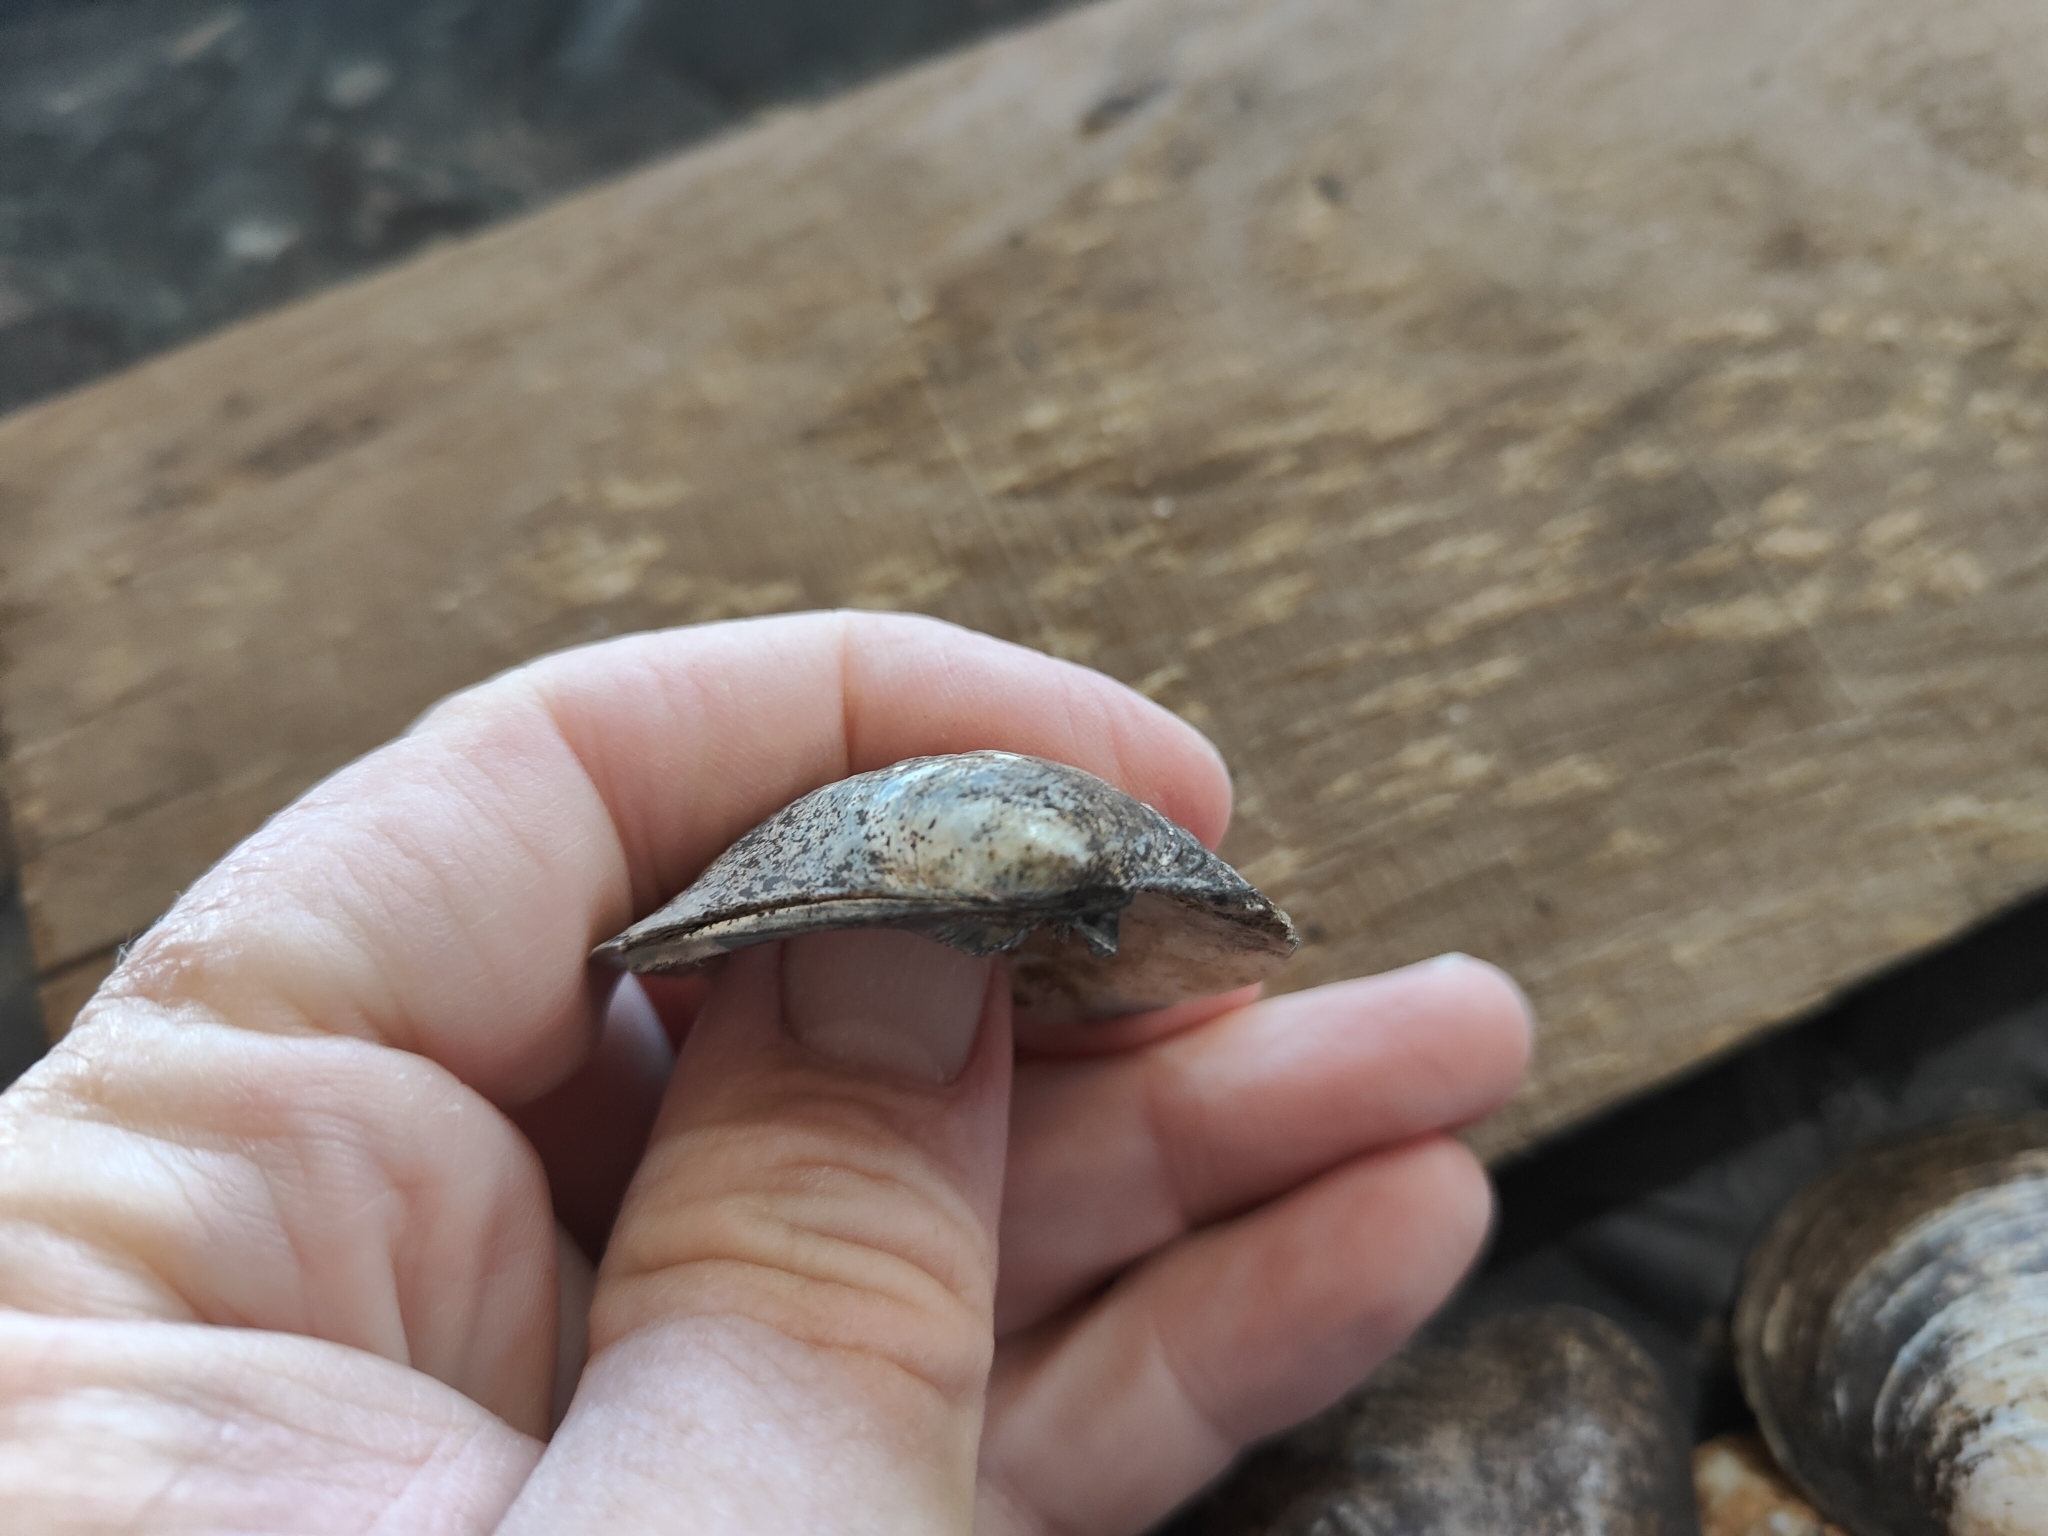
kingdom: Animalia
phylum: Mollusca
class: Bivalvia
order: Unionida
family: Unionidae
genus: Amblema
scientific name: Amblema plicata
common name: Threeridge
